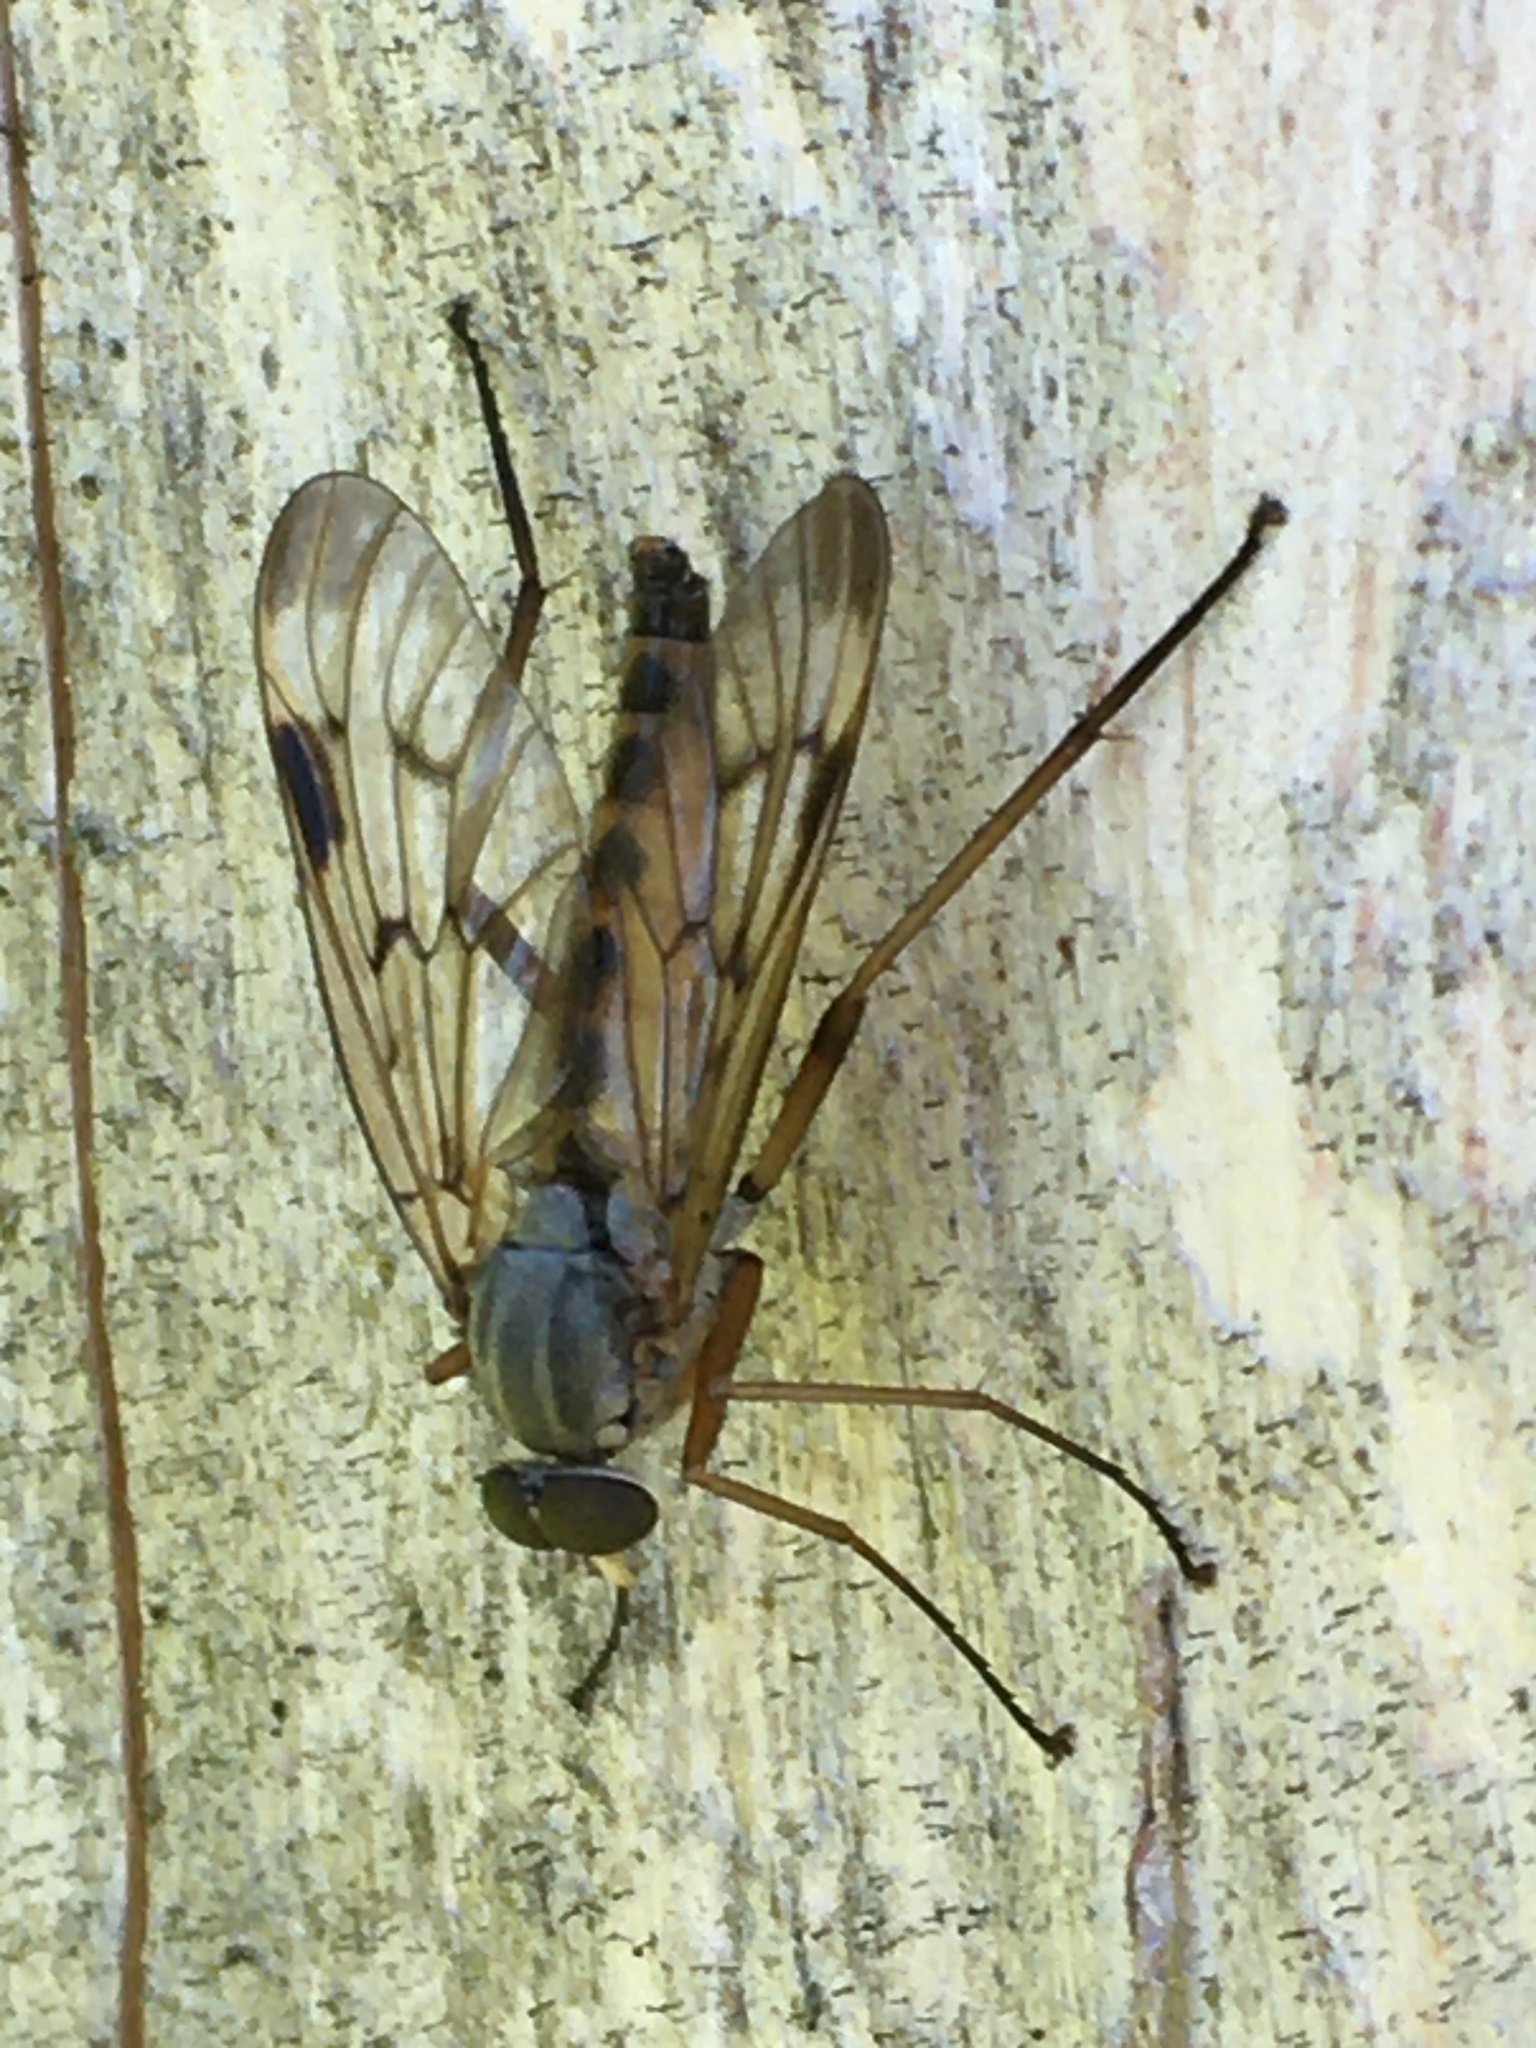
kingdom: Animalia
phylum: Arthropoda
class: Insecta
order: Diptera
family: Rhagionidae
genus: Rhagio
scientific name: Rhagio scolopacea
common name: Downlooker snipefly
